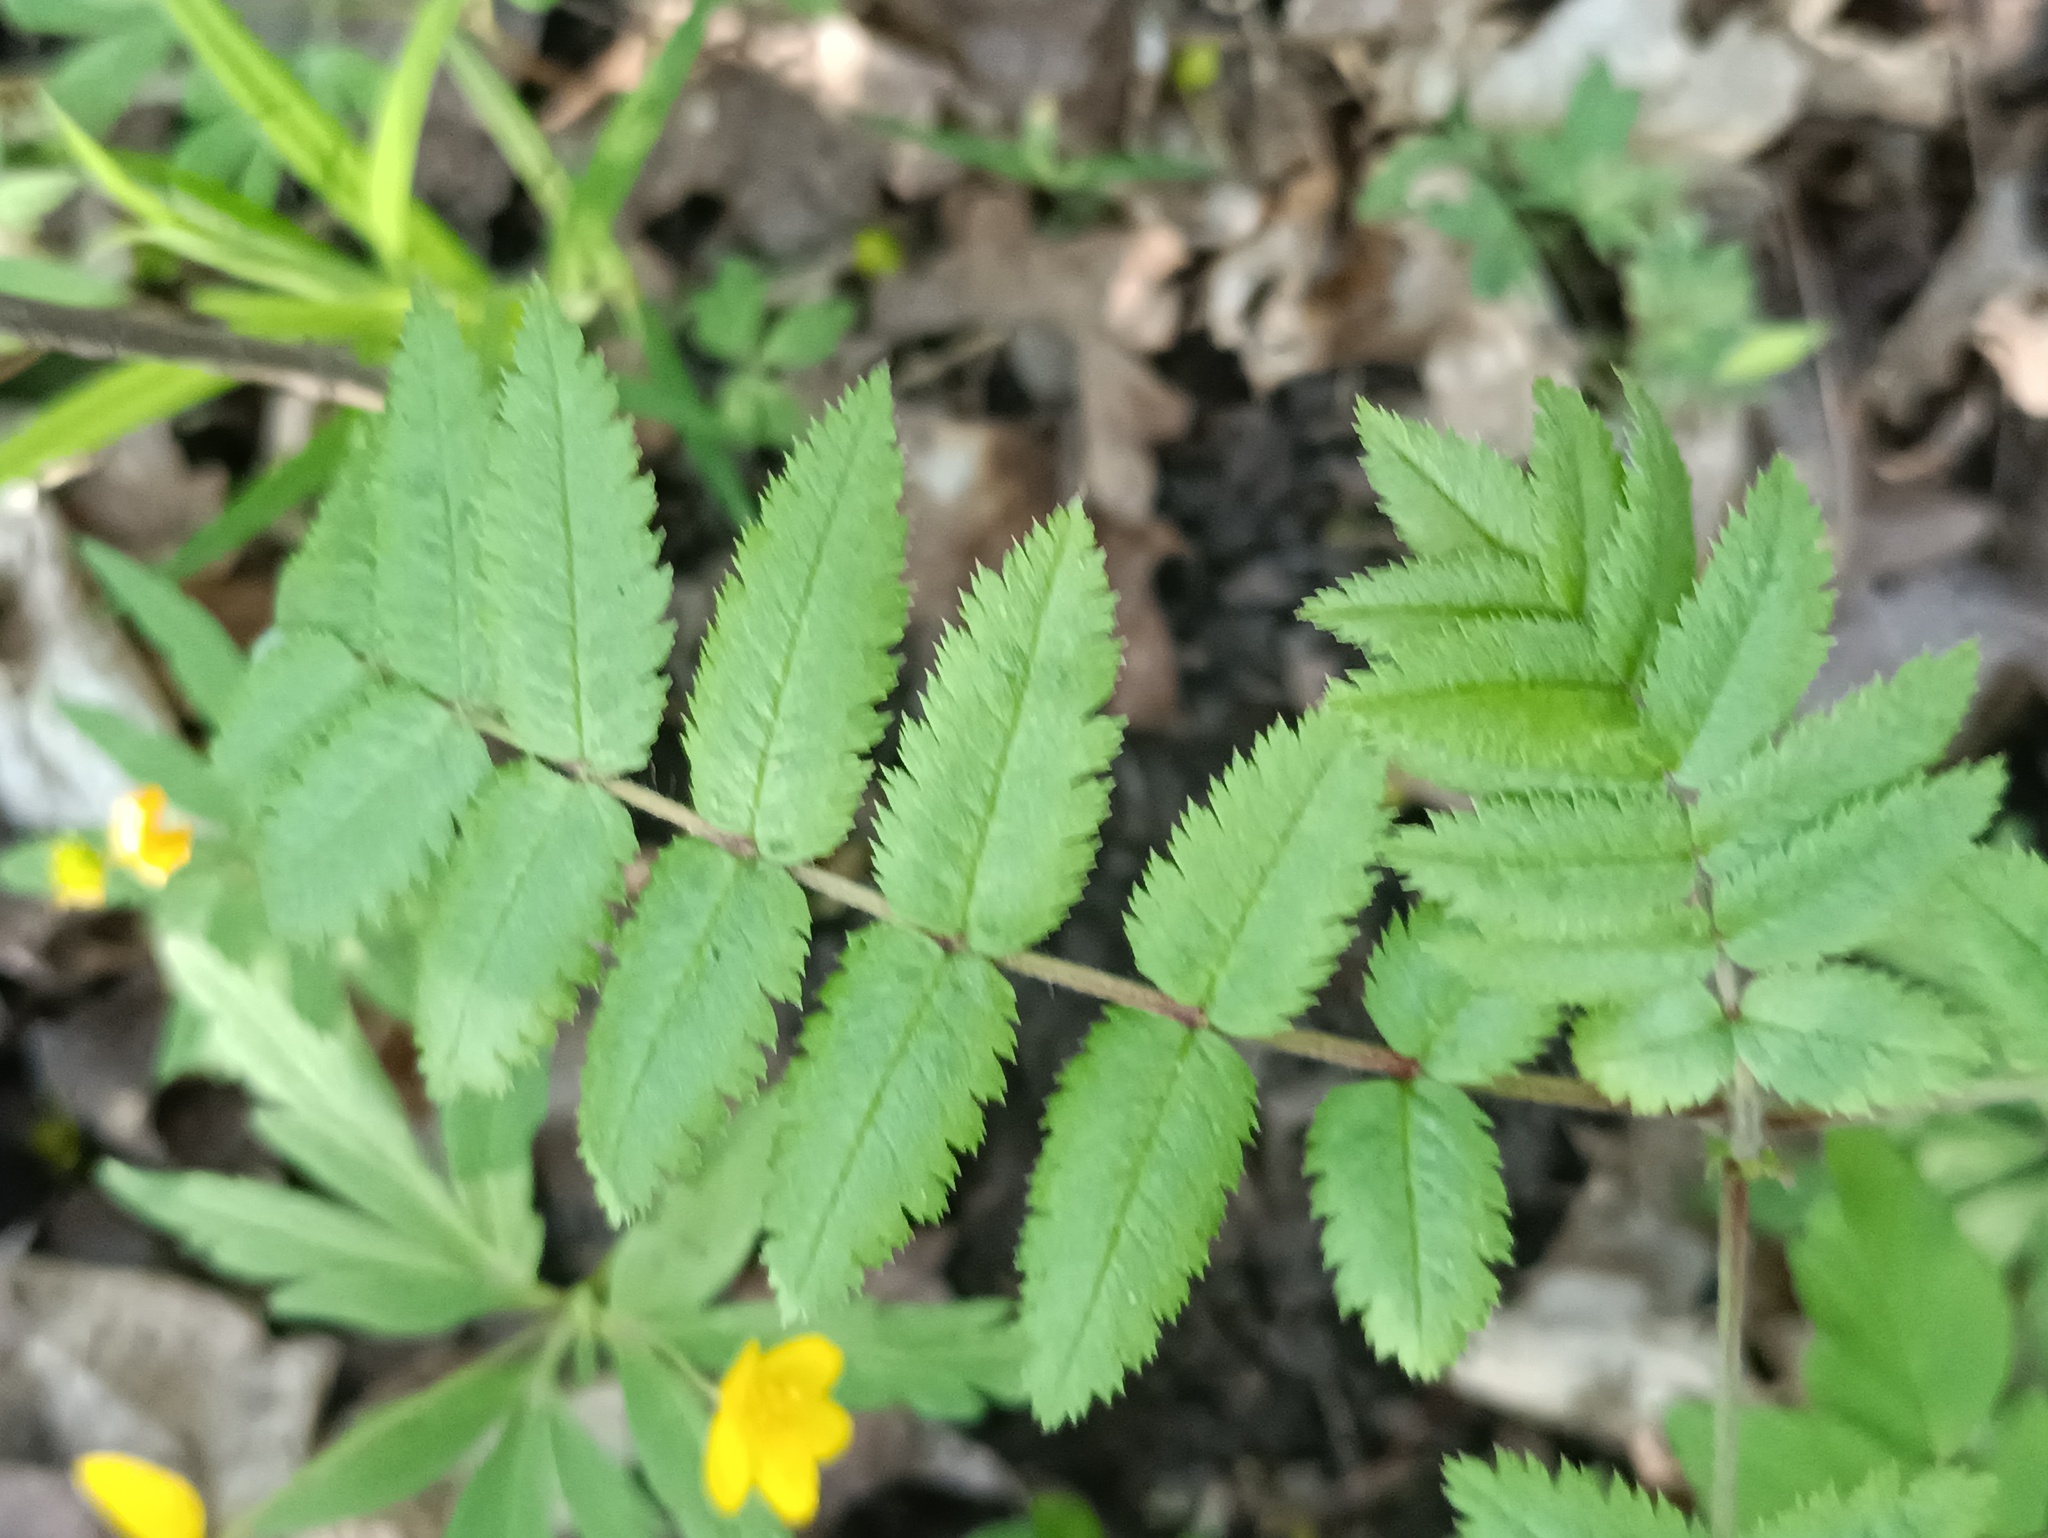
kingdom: Plantae
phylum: Tracheophyta
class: Magnoliopsida
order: Rosales
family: Rosaceae
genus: Sorbus
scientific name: Sorbus aucuparia
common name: Rowan
